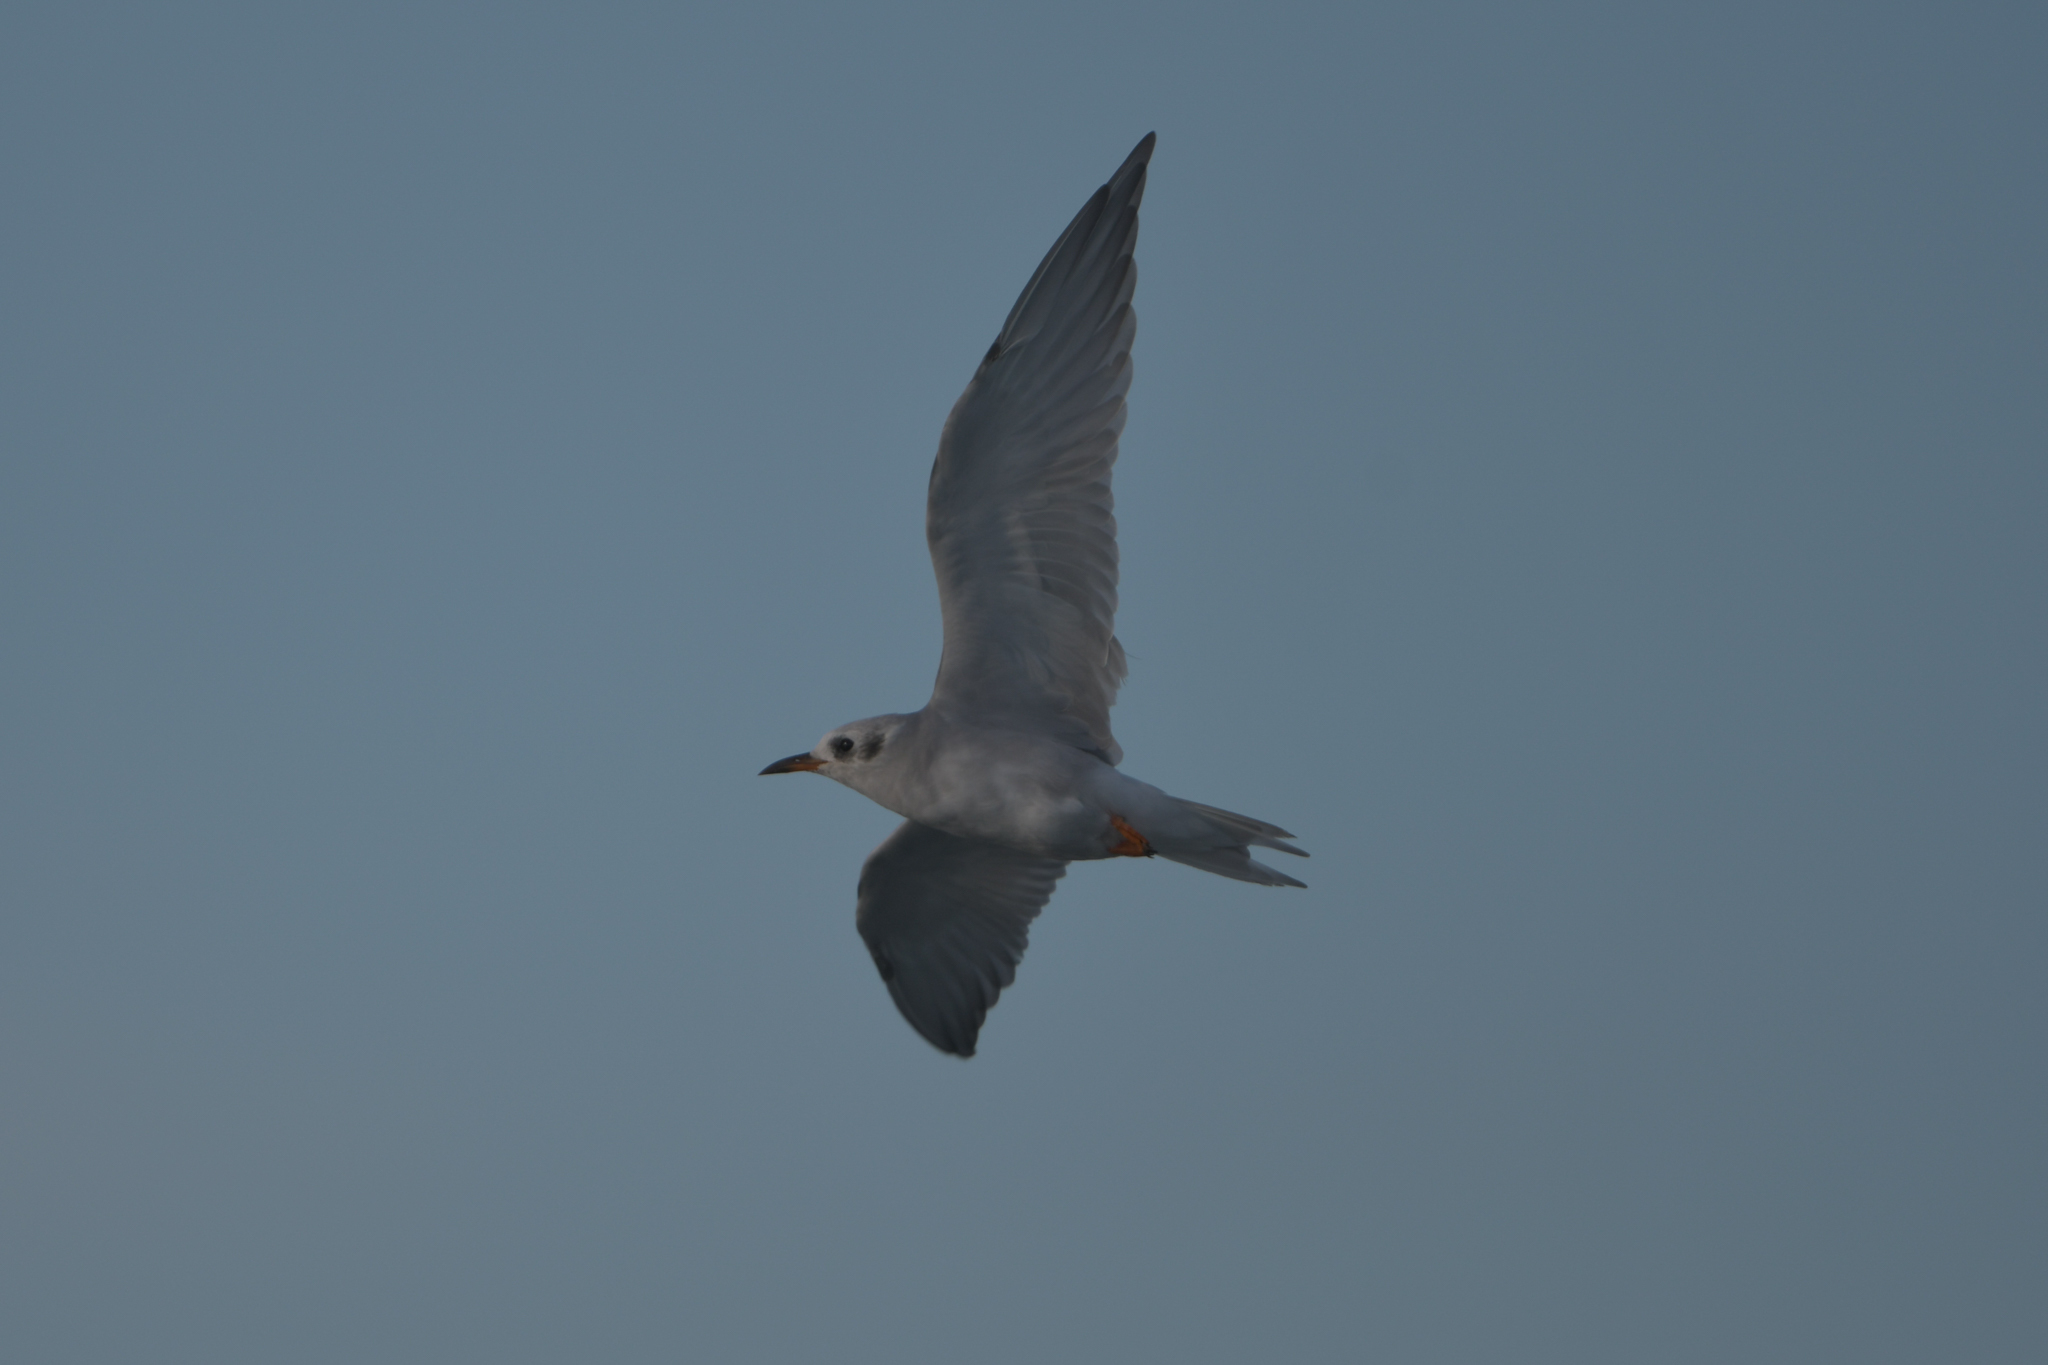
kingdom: Animalia
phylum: Chordata
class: Aves
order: Charadriiformes
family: Laridae
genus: Chlidonias
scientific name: Chlidonias albostriatus
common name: Black-fronted tern
